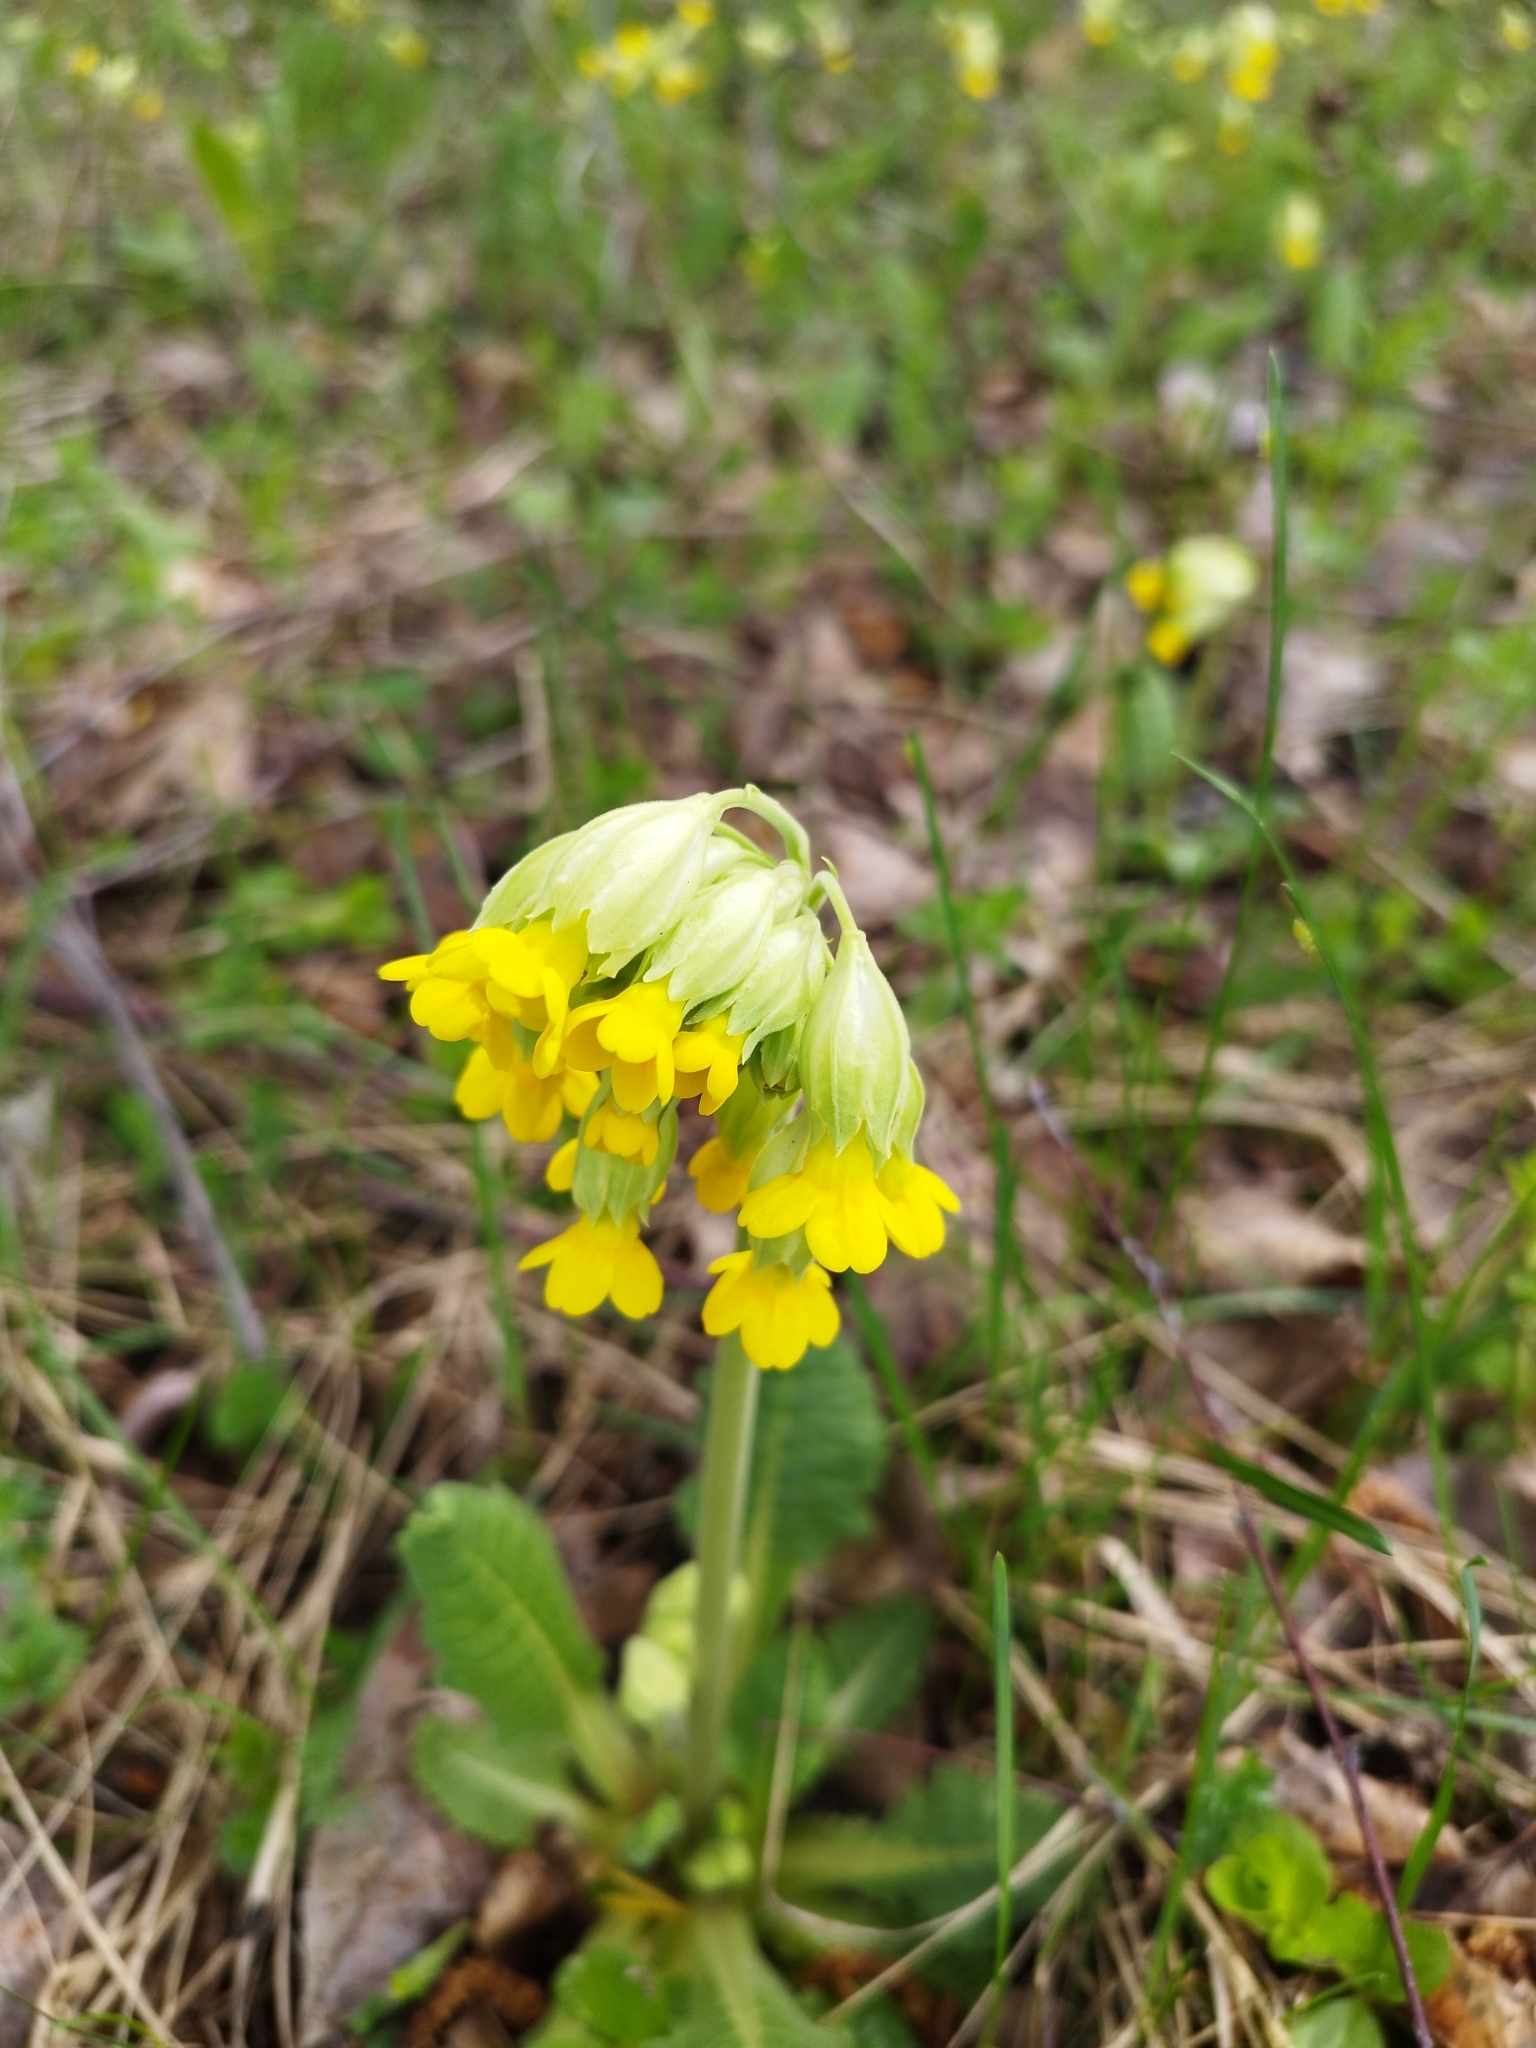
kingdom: Plantae
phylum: Tracheophyta
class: Magnoliopsida
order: Ericales
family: Primulaceae
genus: Primula
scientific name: Primula veris
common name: Cowslip
